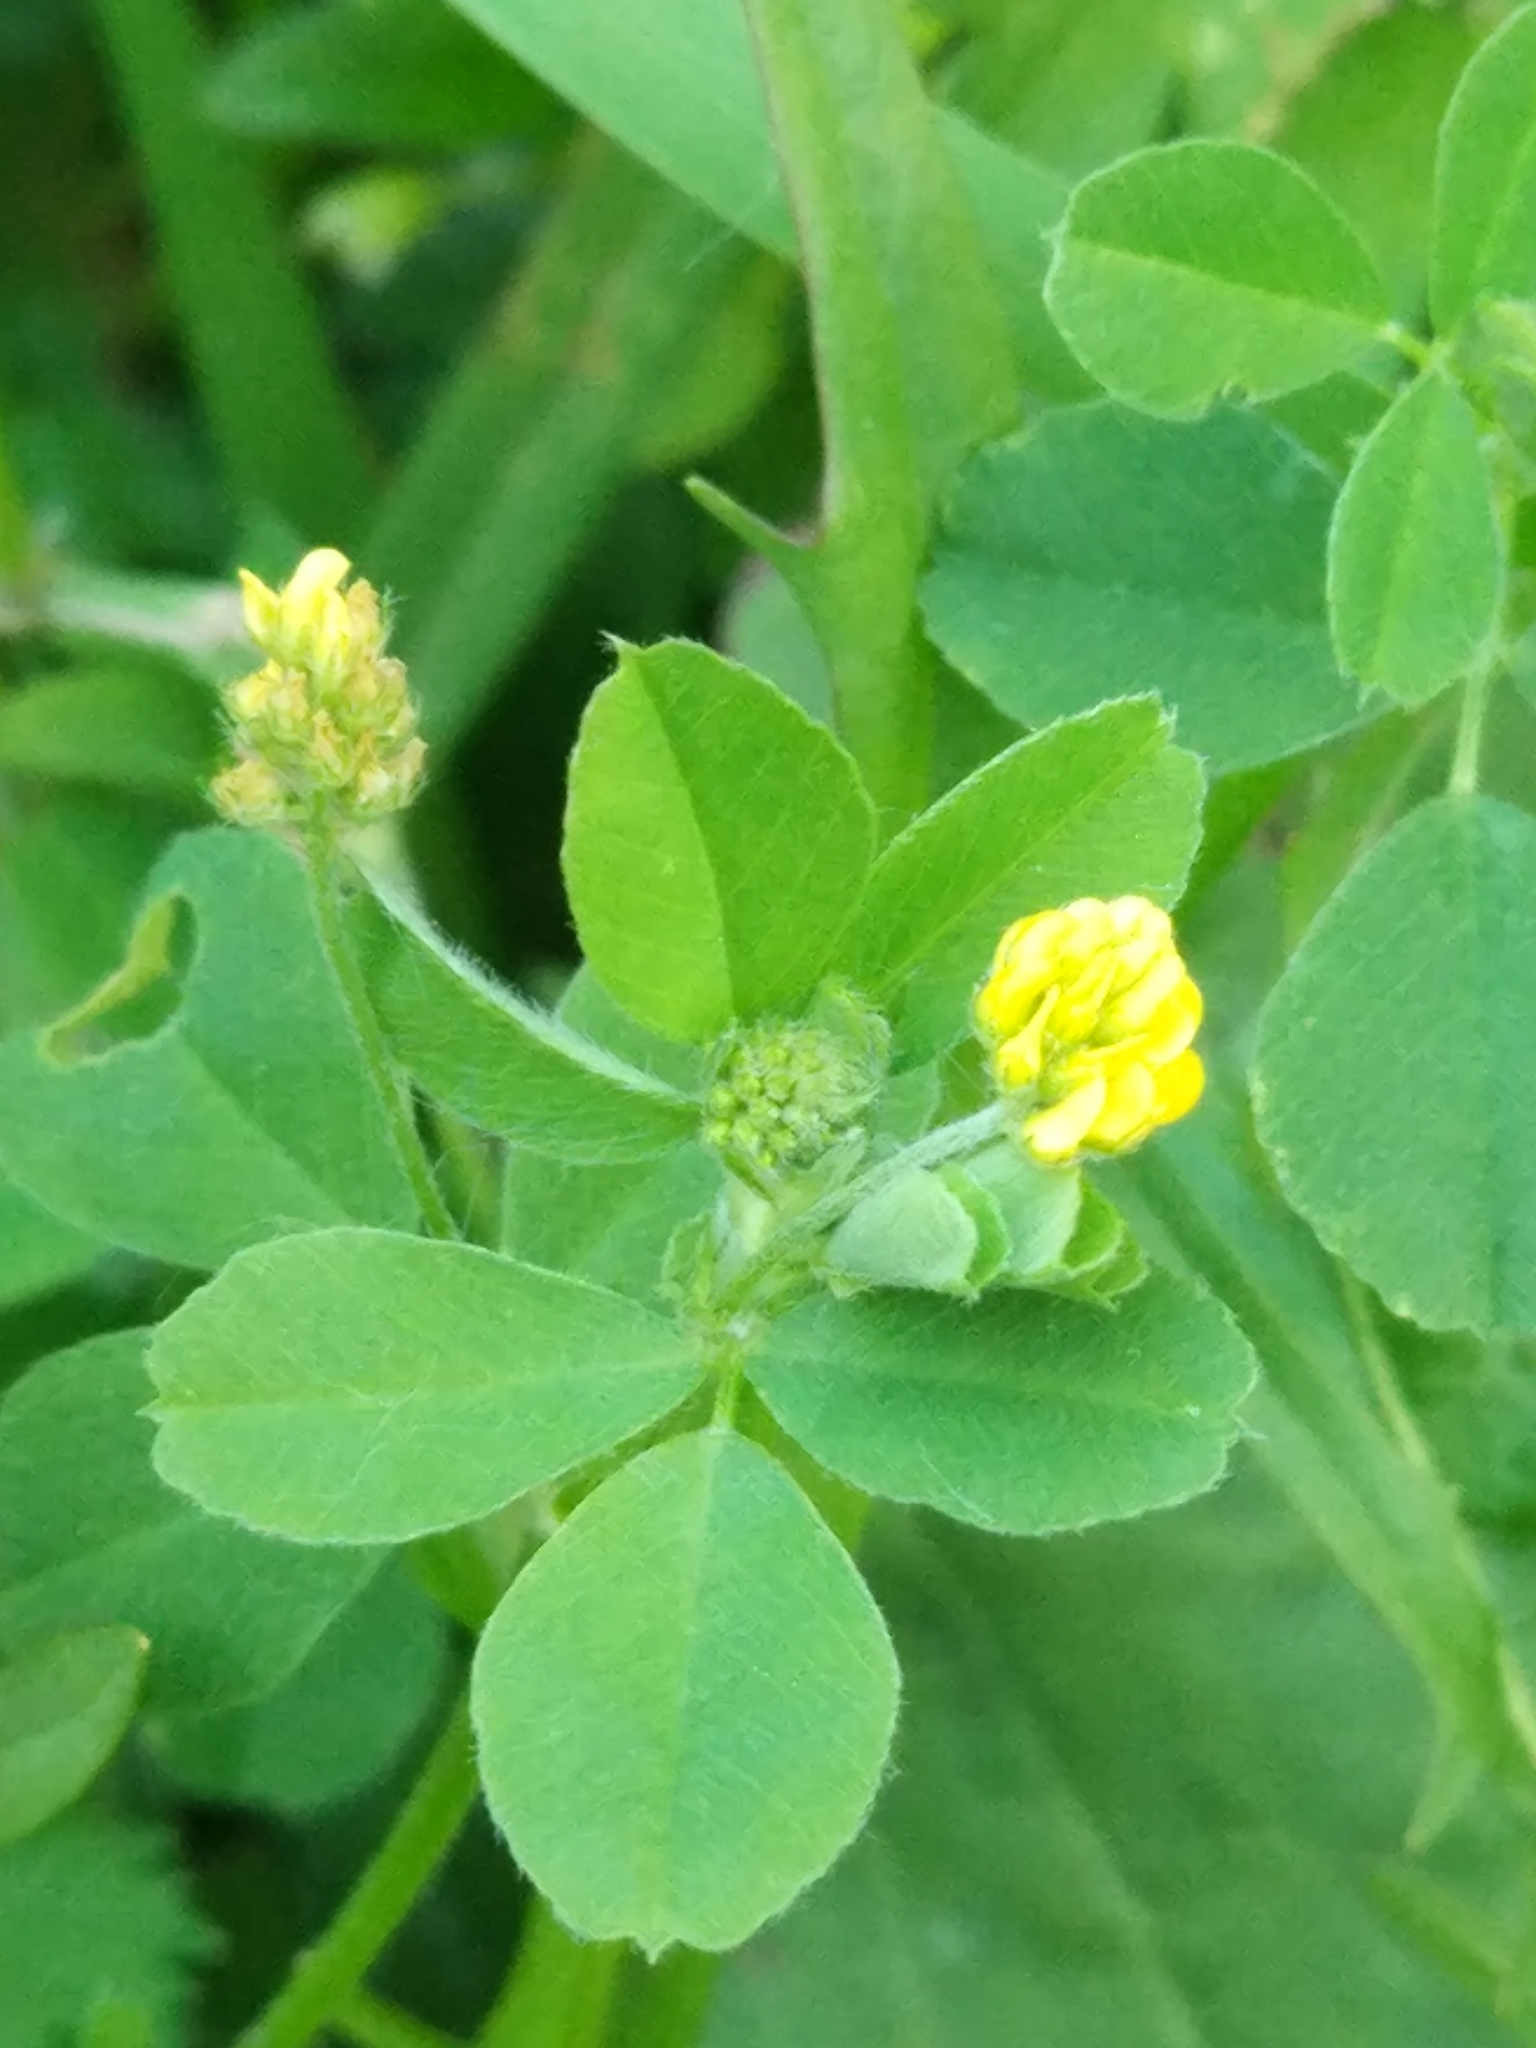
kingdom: Plantae
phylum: Tracheophyta
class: Magnoliopsida
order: Fabales
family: Fabaceae
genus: Medicago
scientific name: Medicago lupulina
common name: Black medick
